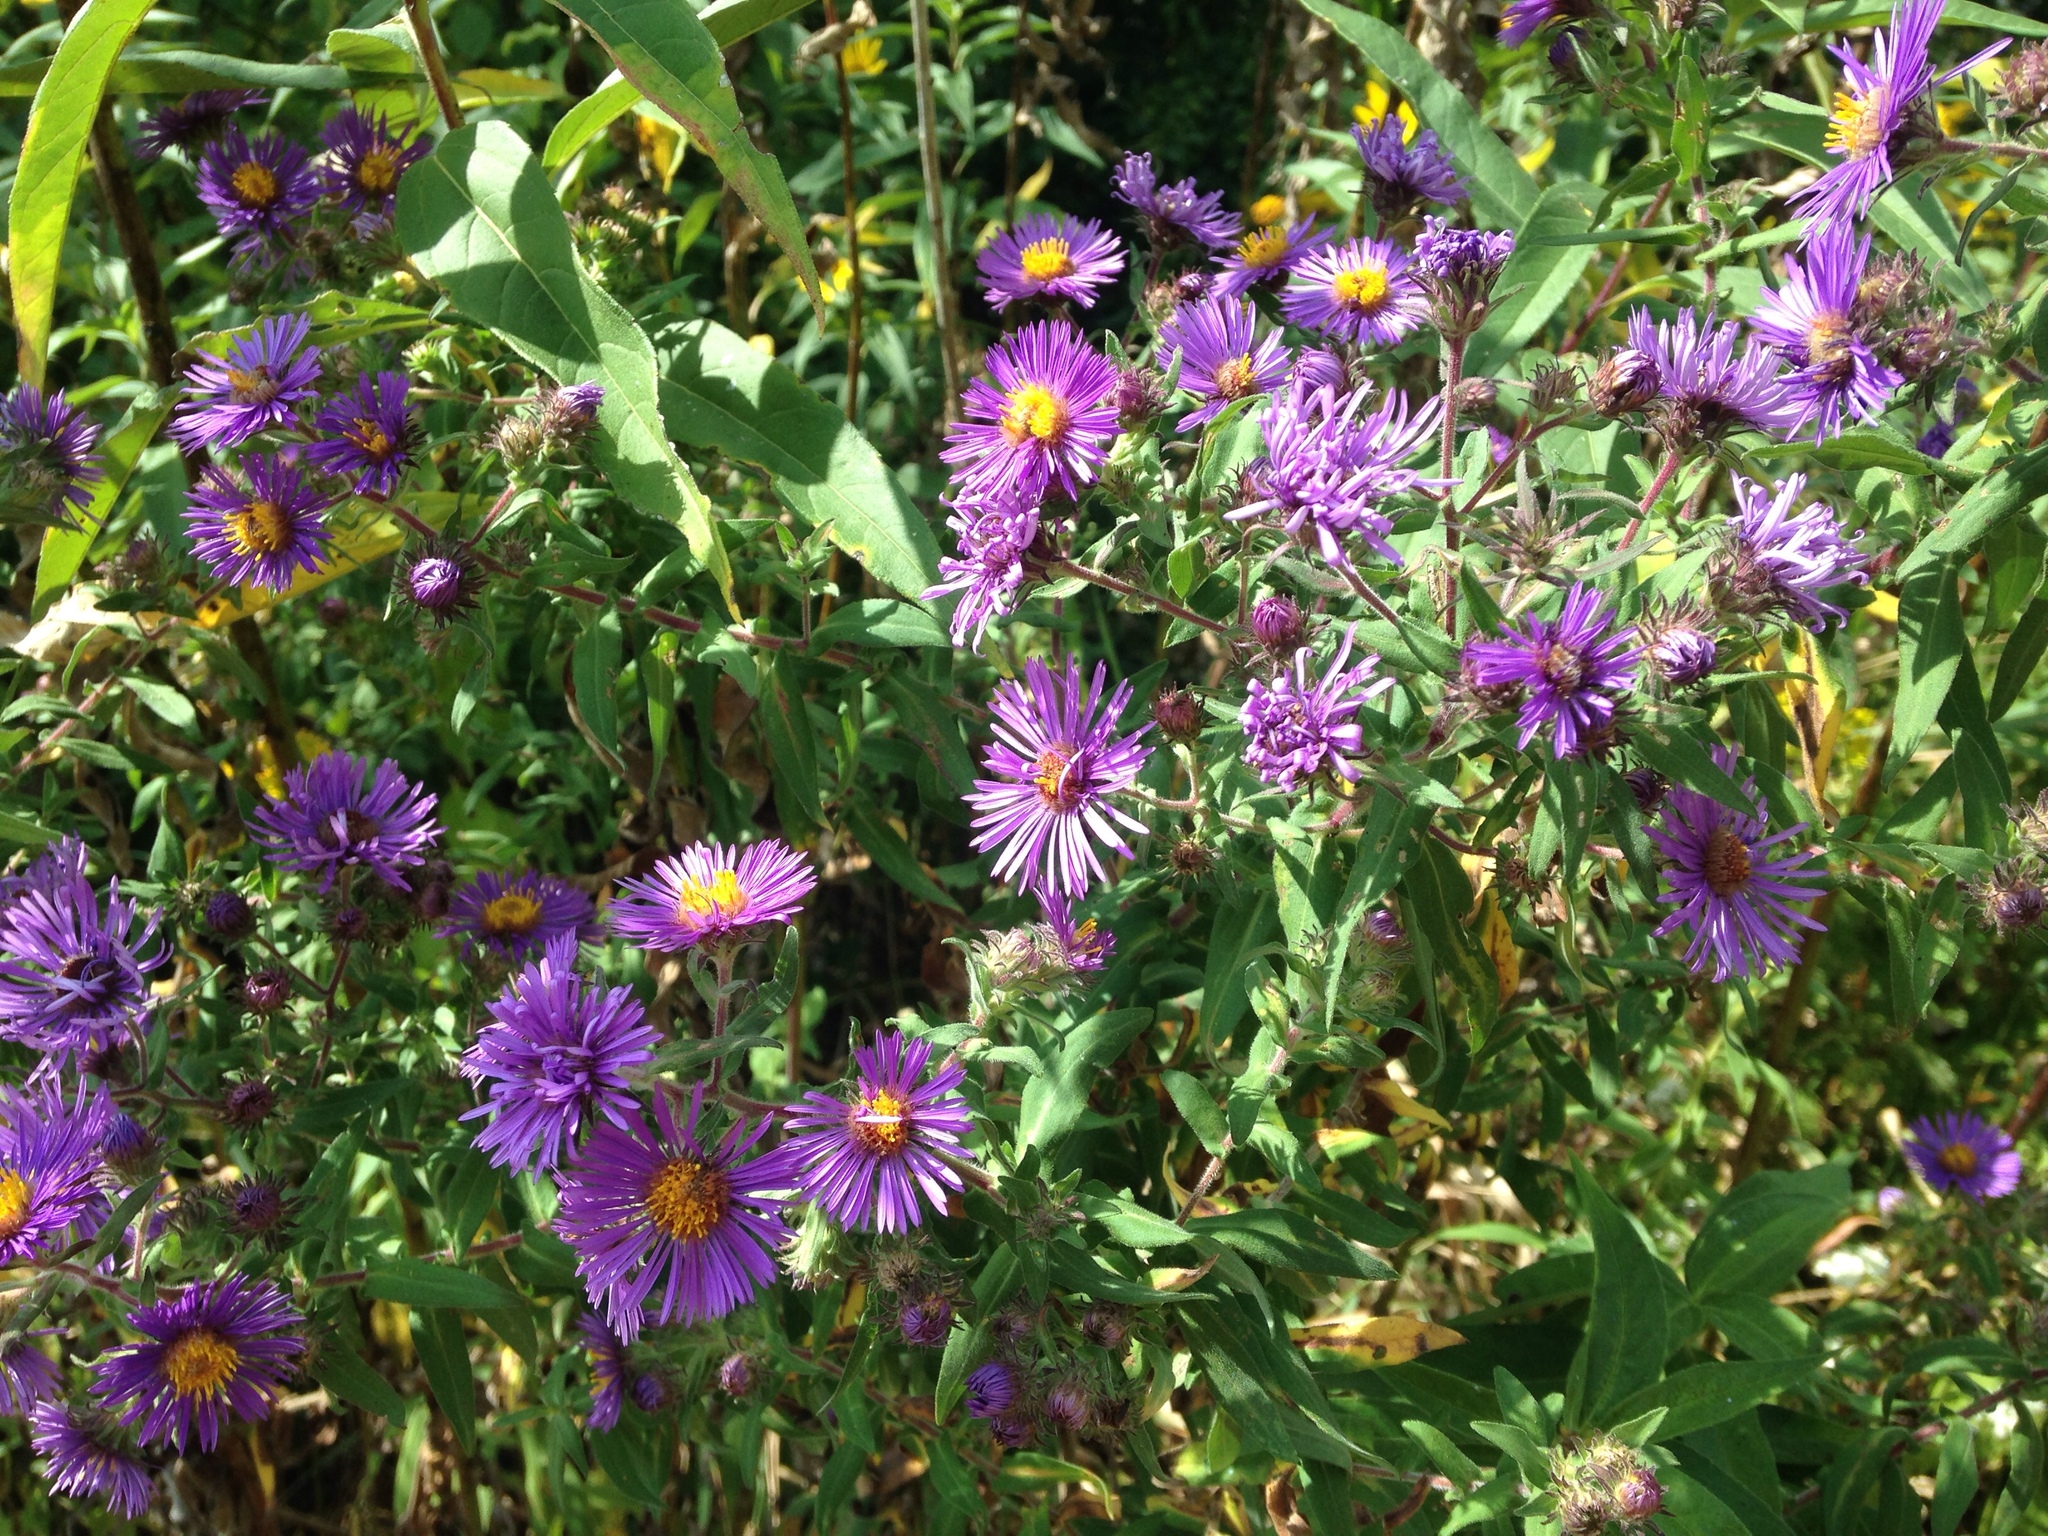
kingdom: Plantae
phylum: Tracheophyta
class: Magnoliopsida
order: Asterales
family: Asteraceae
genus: Symphyotrichum
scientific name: Symphyotrichum novae-angliae
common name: Michaelmas daisy
